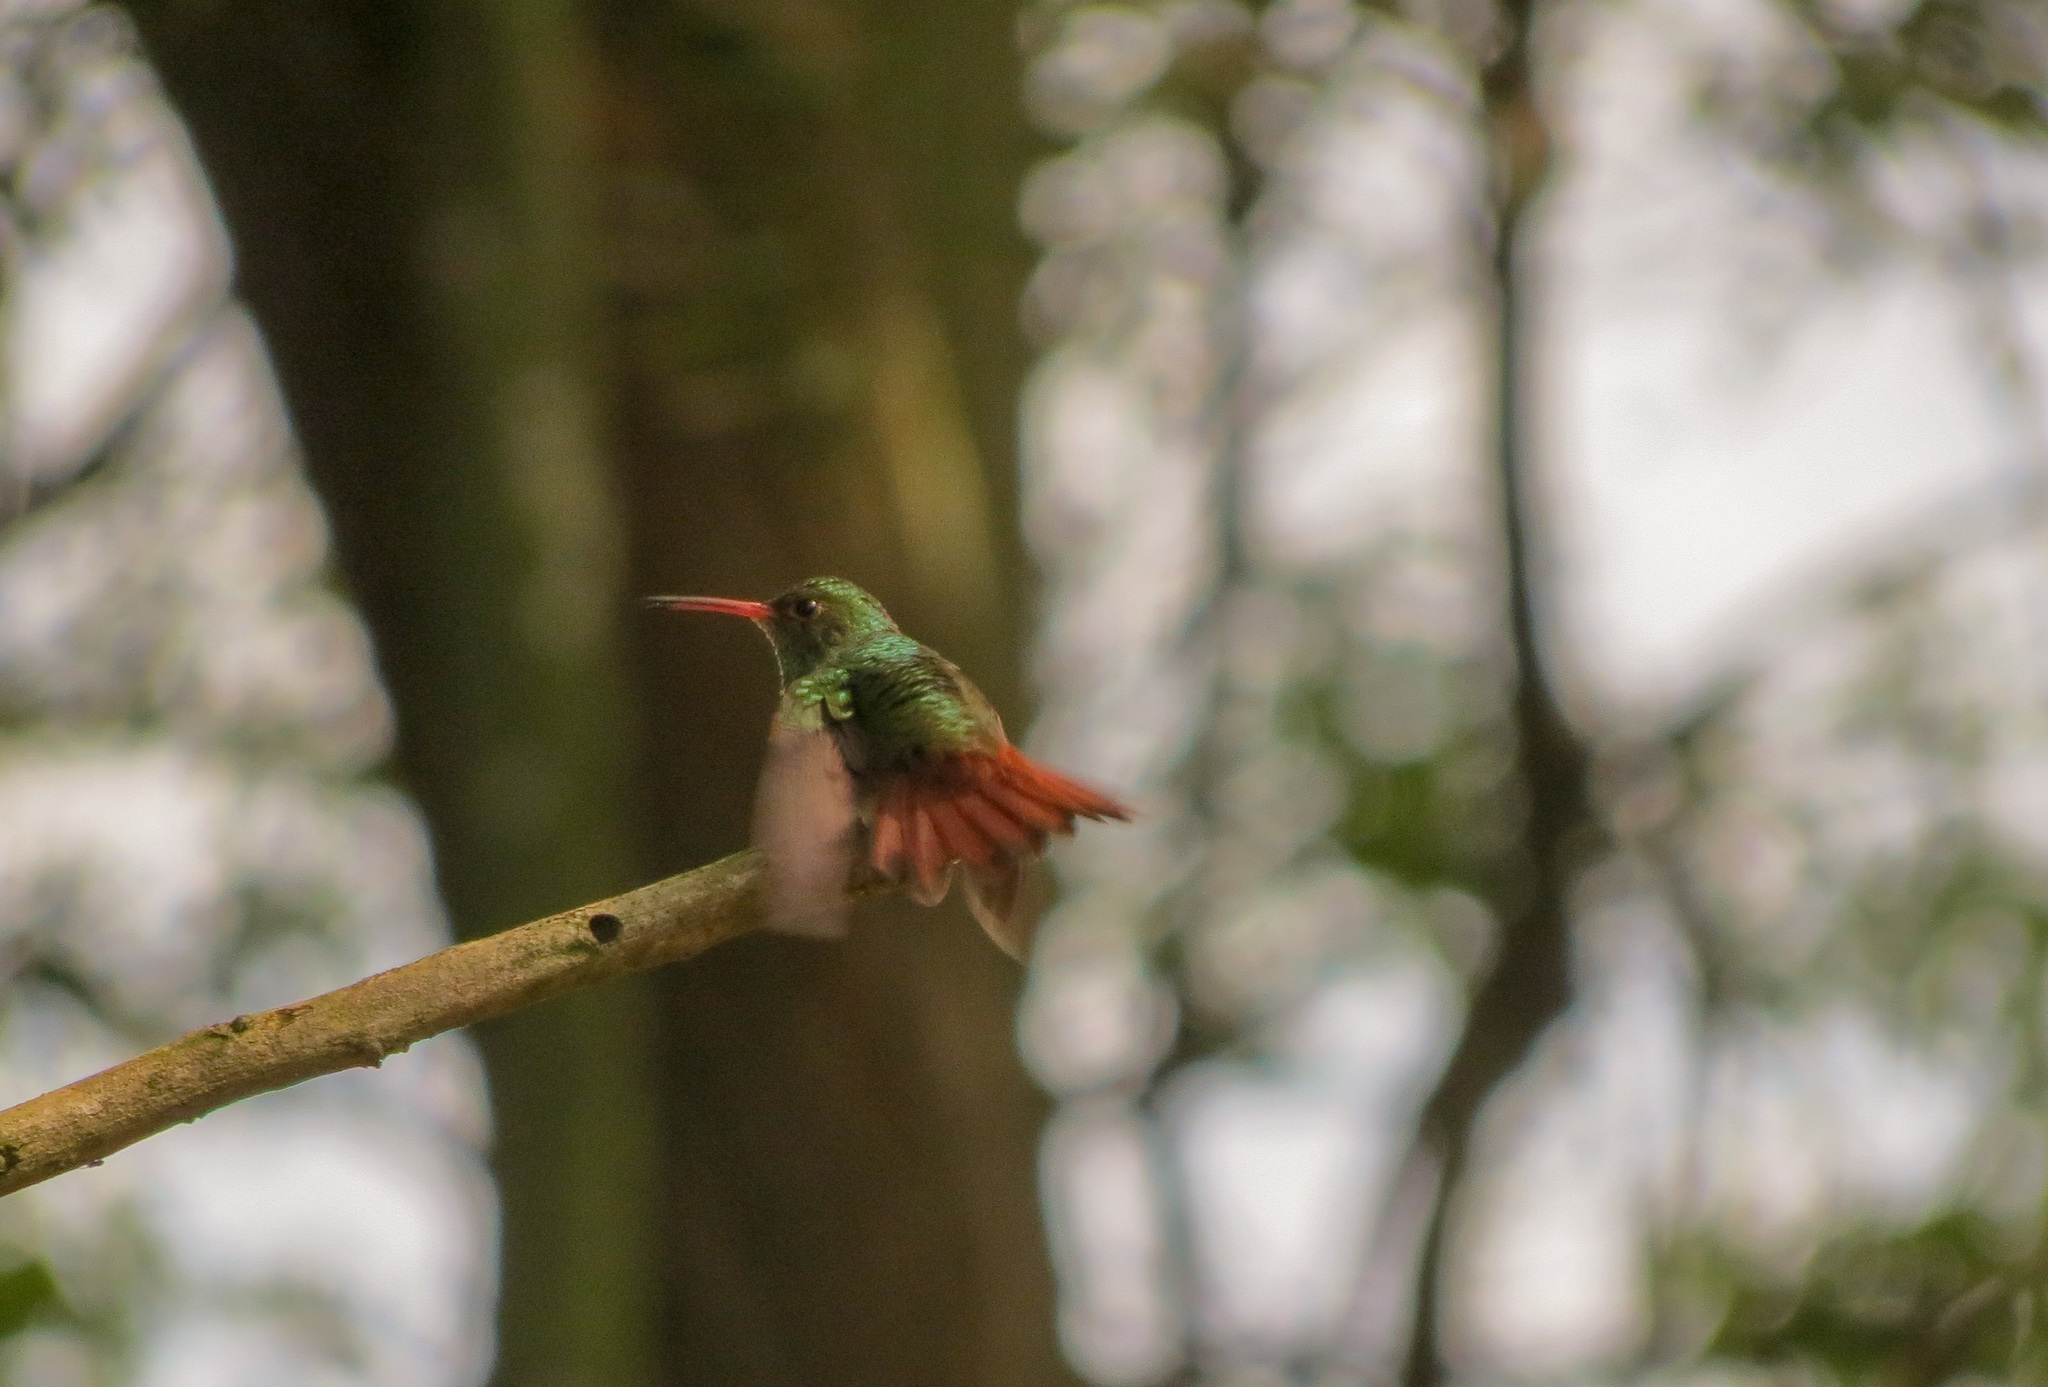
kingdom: Animalia
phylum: Chordata
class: Aves
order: Apodiformes
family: Trochilidae
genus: Amazilia
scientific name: Amazilia tzacatl
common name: Rufous-tailed hummingbird
